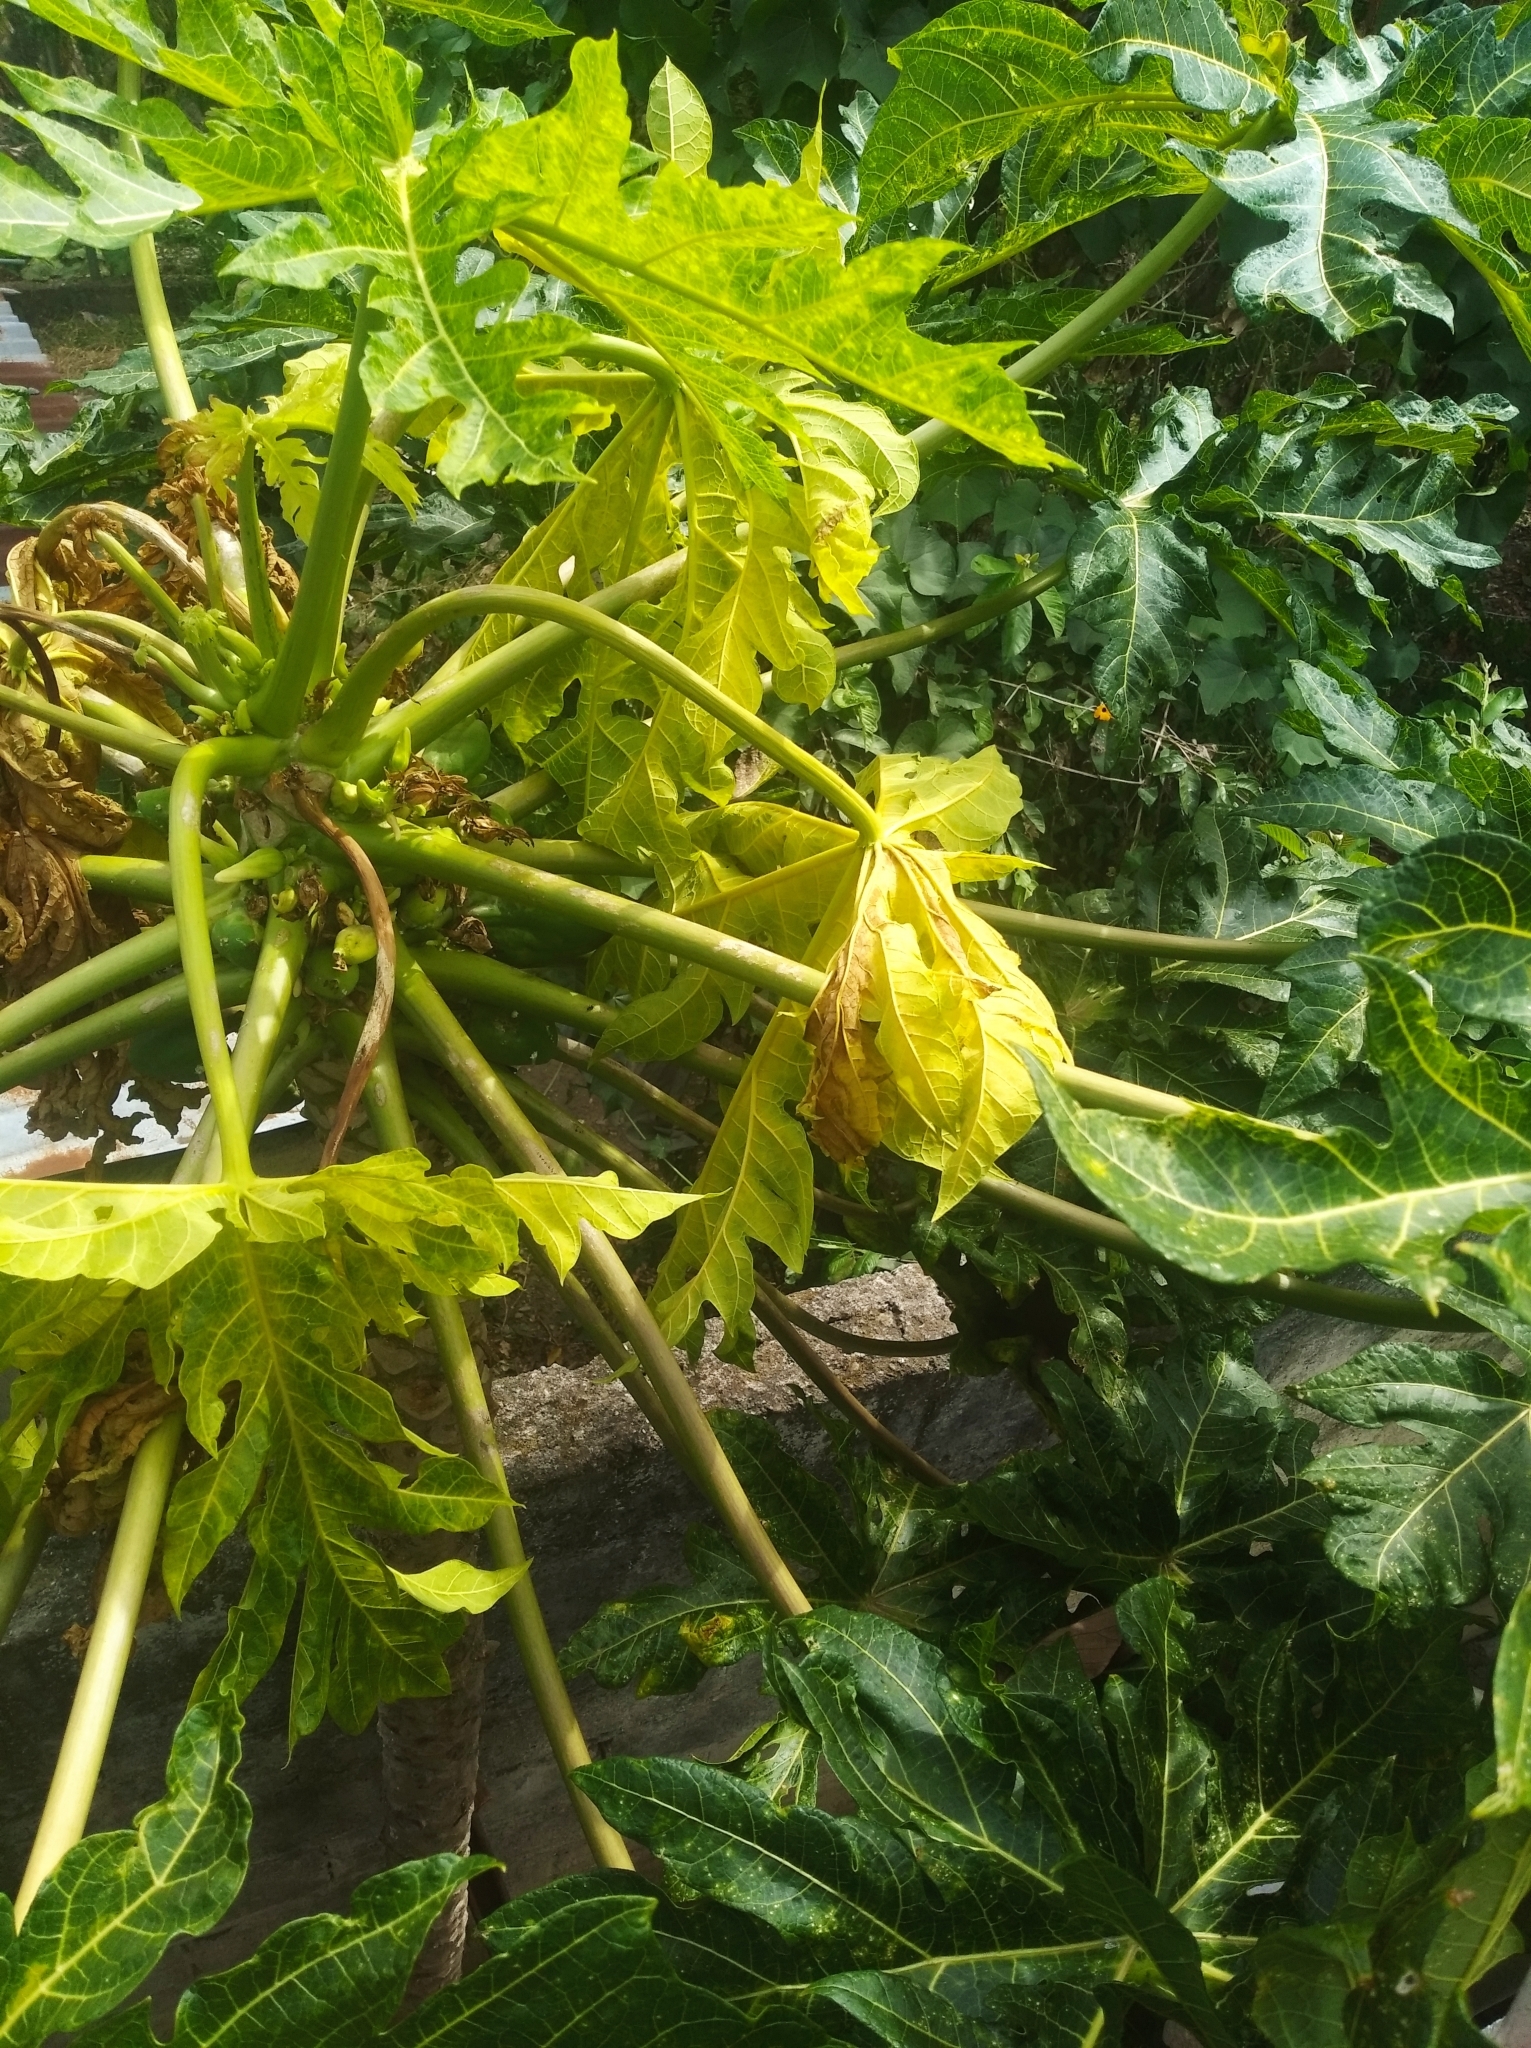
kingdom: Plantae
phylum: Tracheophyta
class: Magnoliopsida
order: Brassicales
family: Caricaceae
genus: Carica
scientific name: Carica papaya
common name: Papaya
